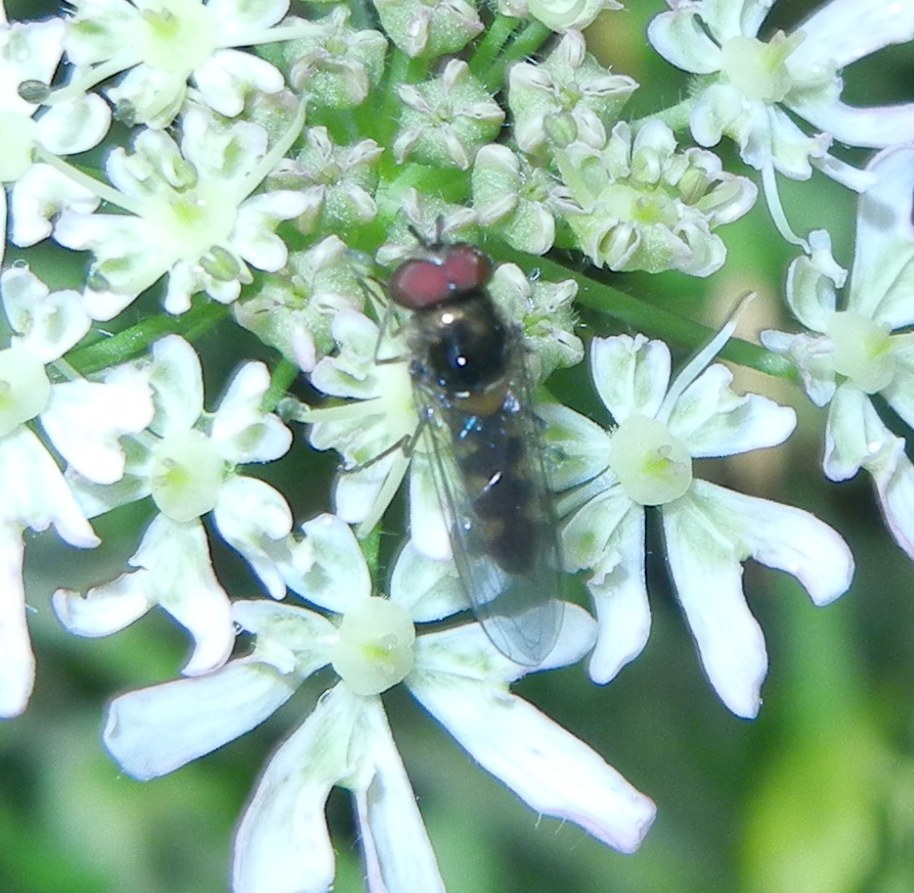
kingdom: Animalia
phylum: Arthropoda
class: Insecta
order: Diptera
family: Syrphidae
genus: Meliscaeva
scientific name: Meliscaeva auricollis
